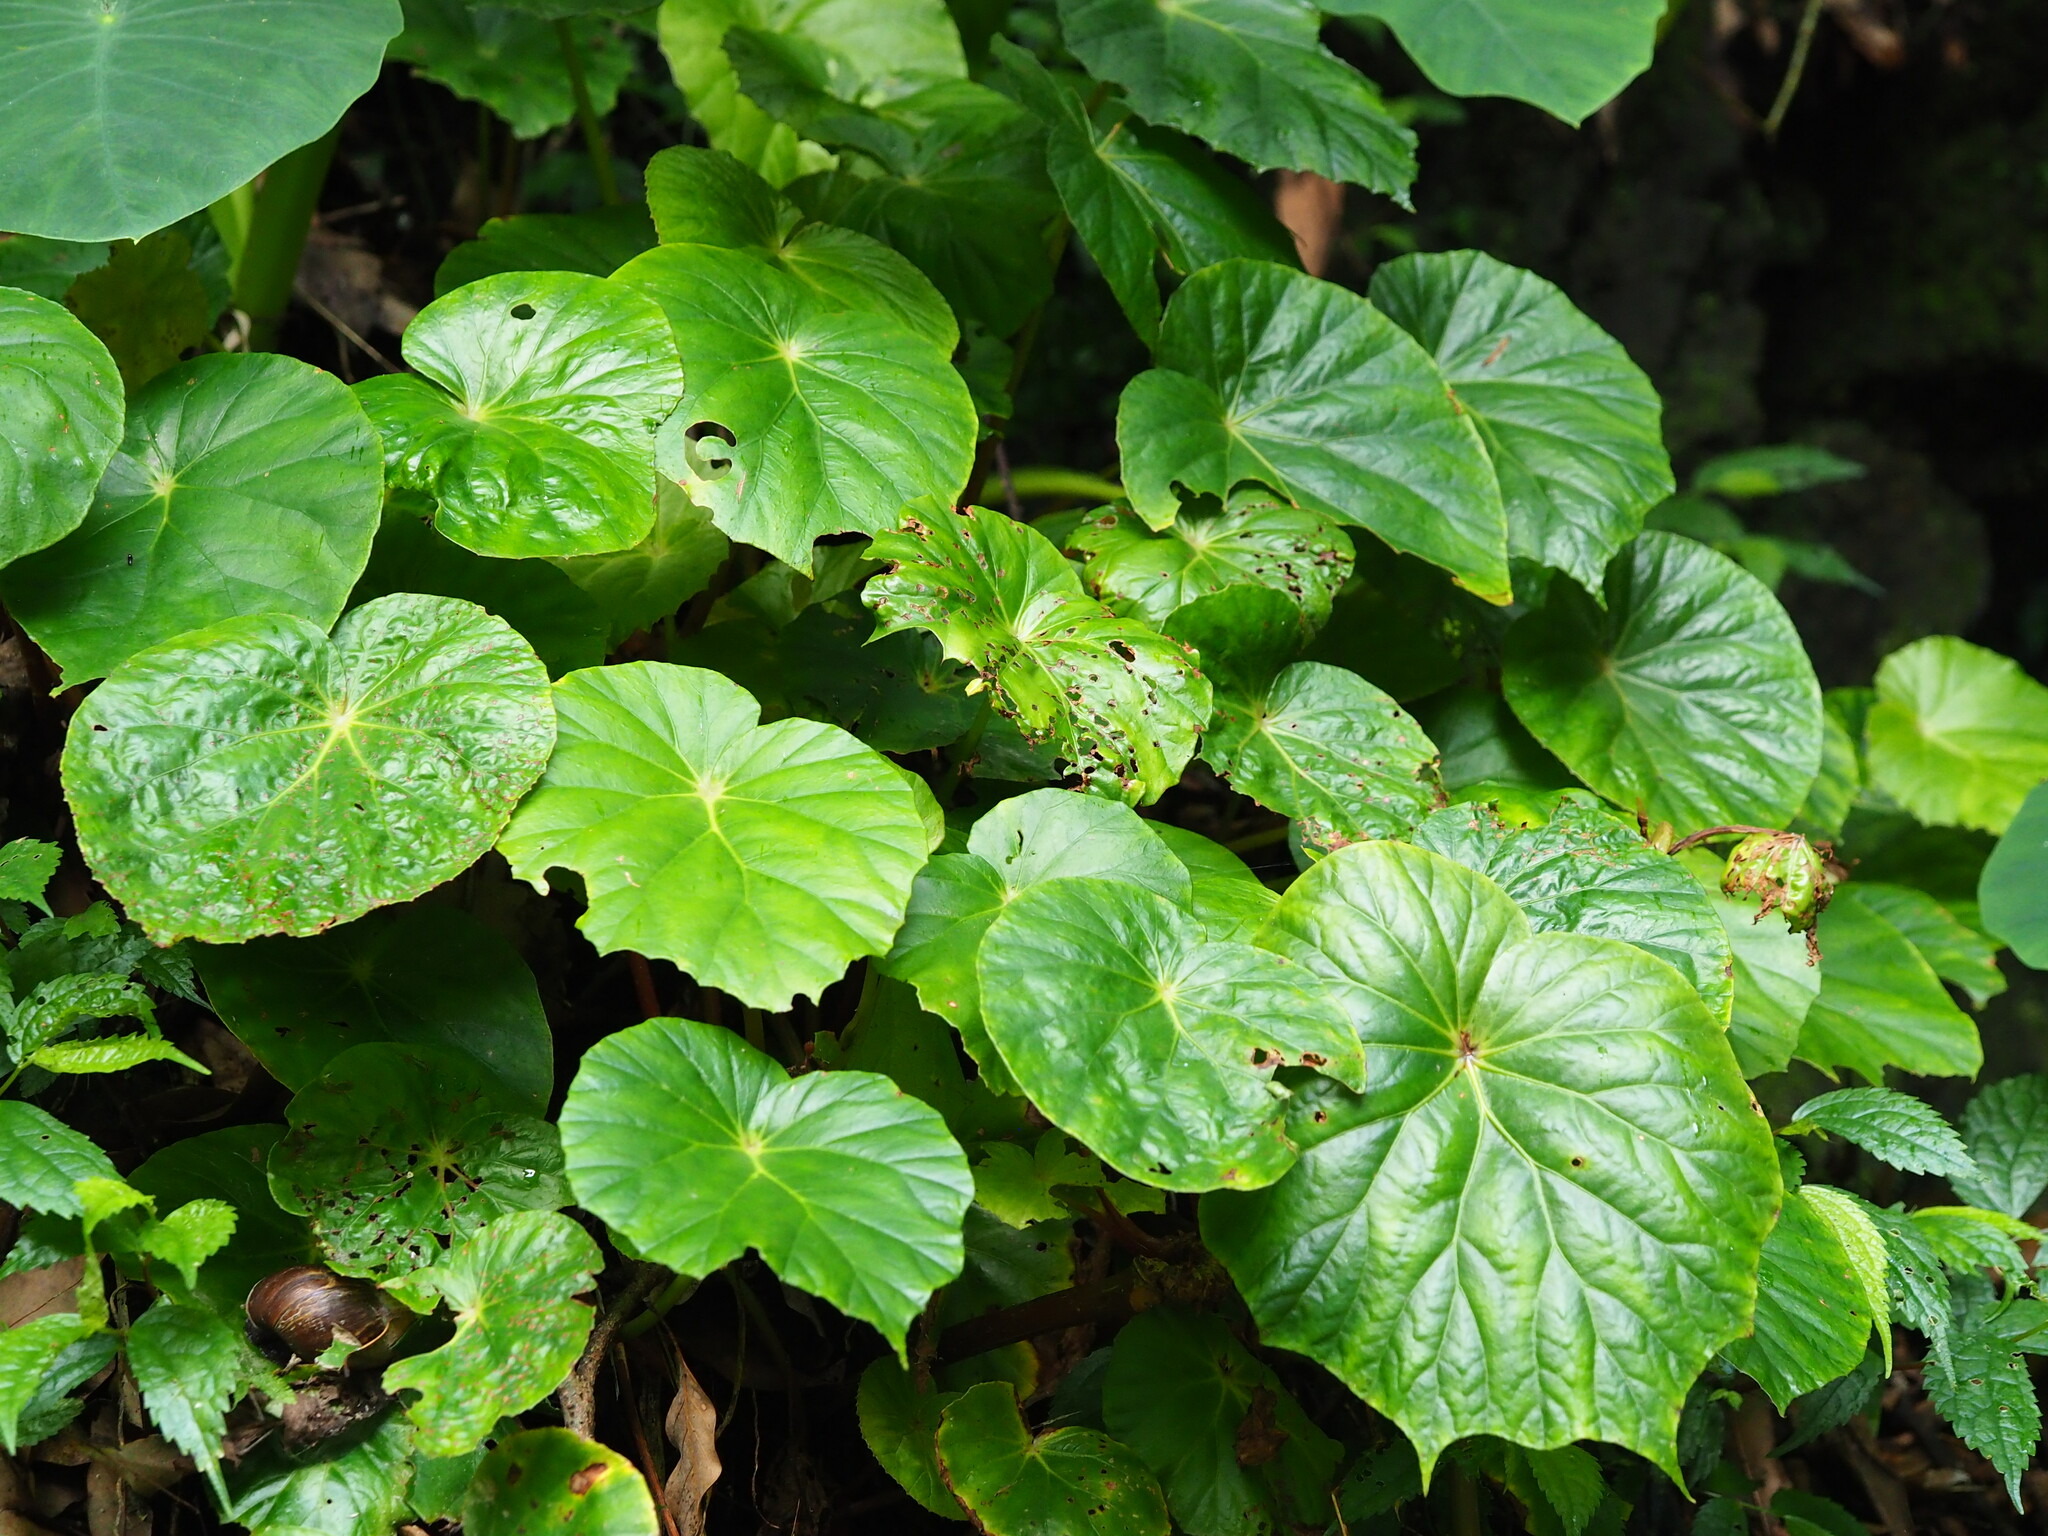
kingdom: Plantae
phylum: Tracheophyta
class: Magnoliopsida
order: Cucurbitales
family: Begoniaceae
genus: Begonia
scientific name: Begonia chitoensis
